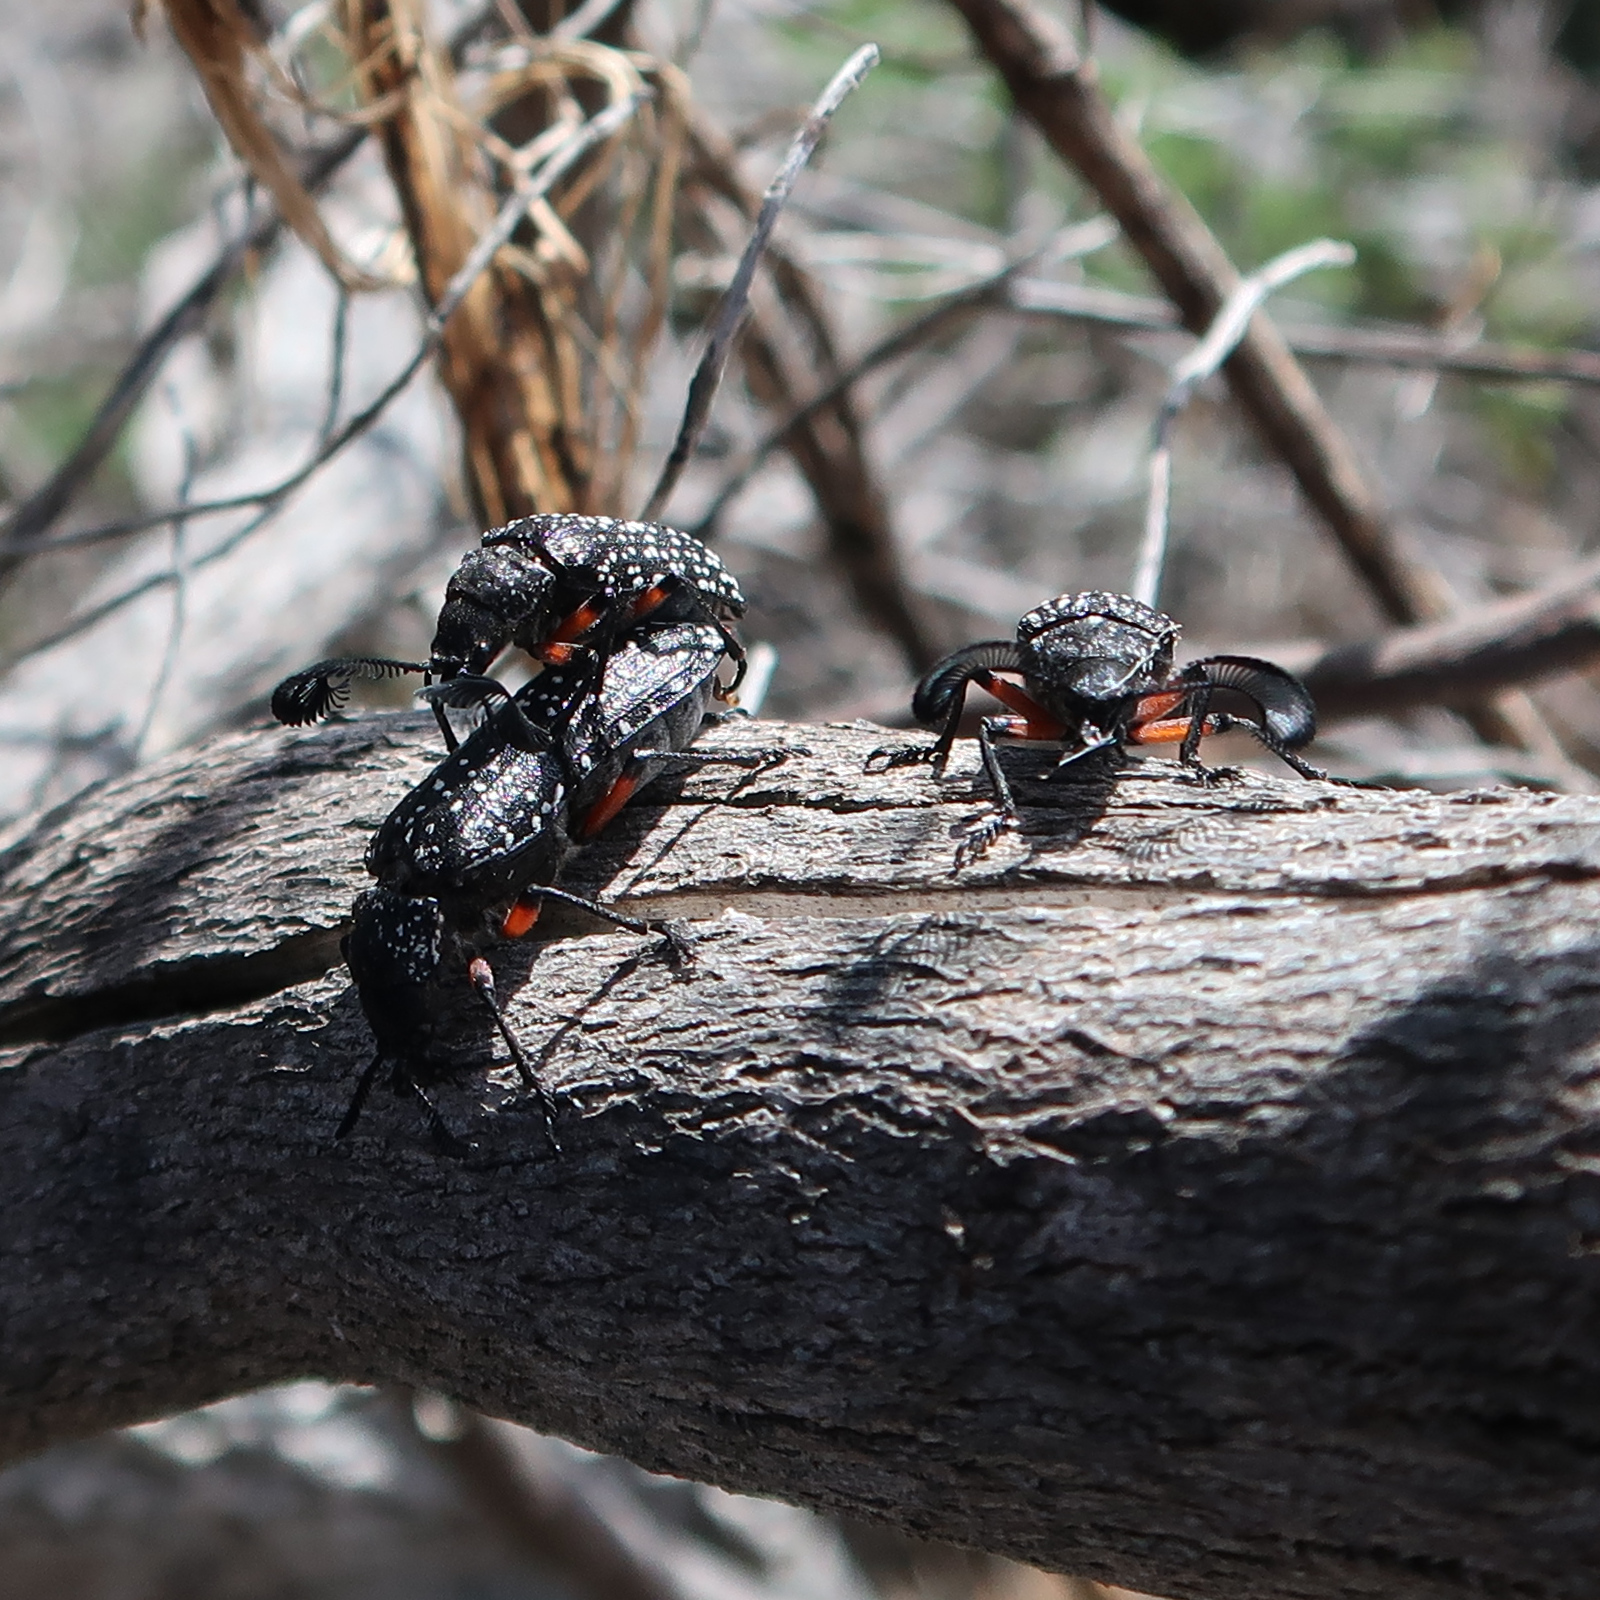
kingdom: Animalia
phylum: Arthropoda
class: Insecta
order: Coleoptera
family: Rhipiceridae
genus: Rhipicera
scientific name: Rhipicera femorata
